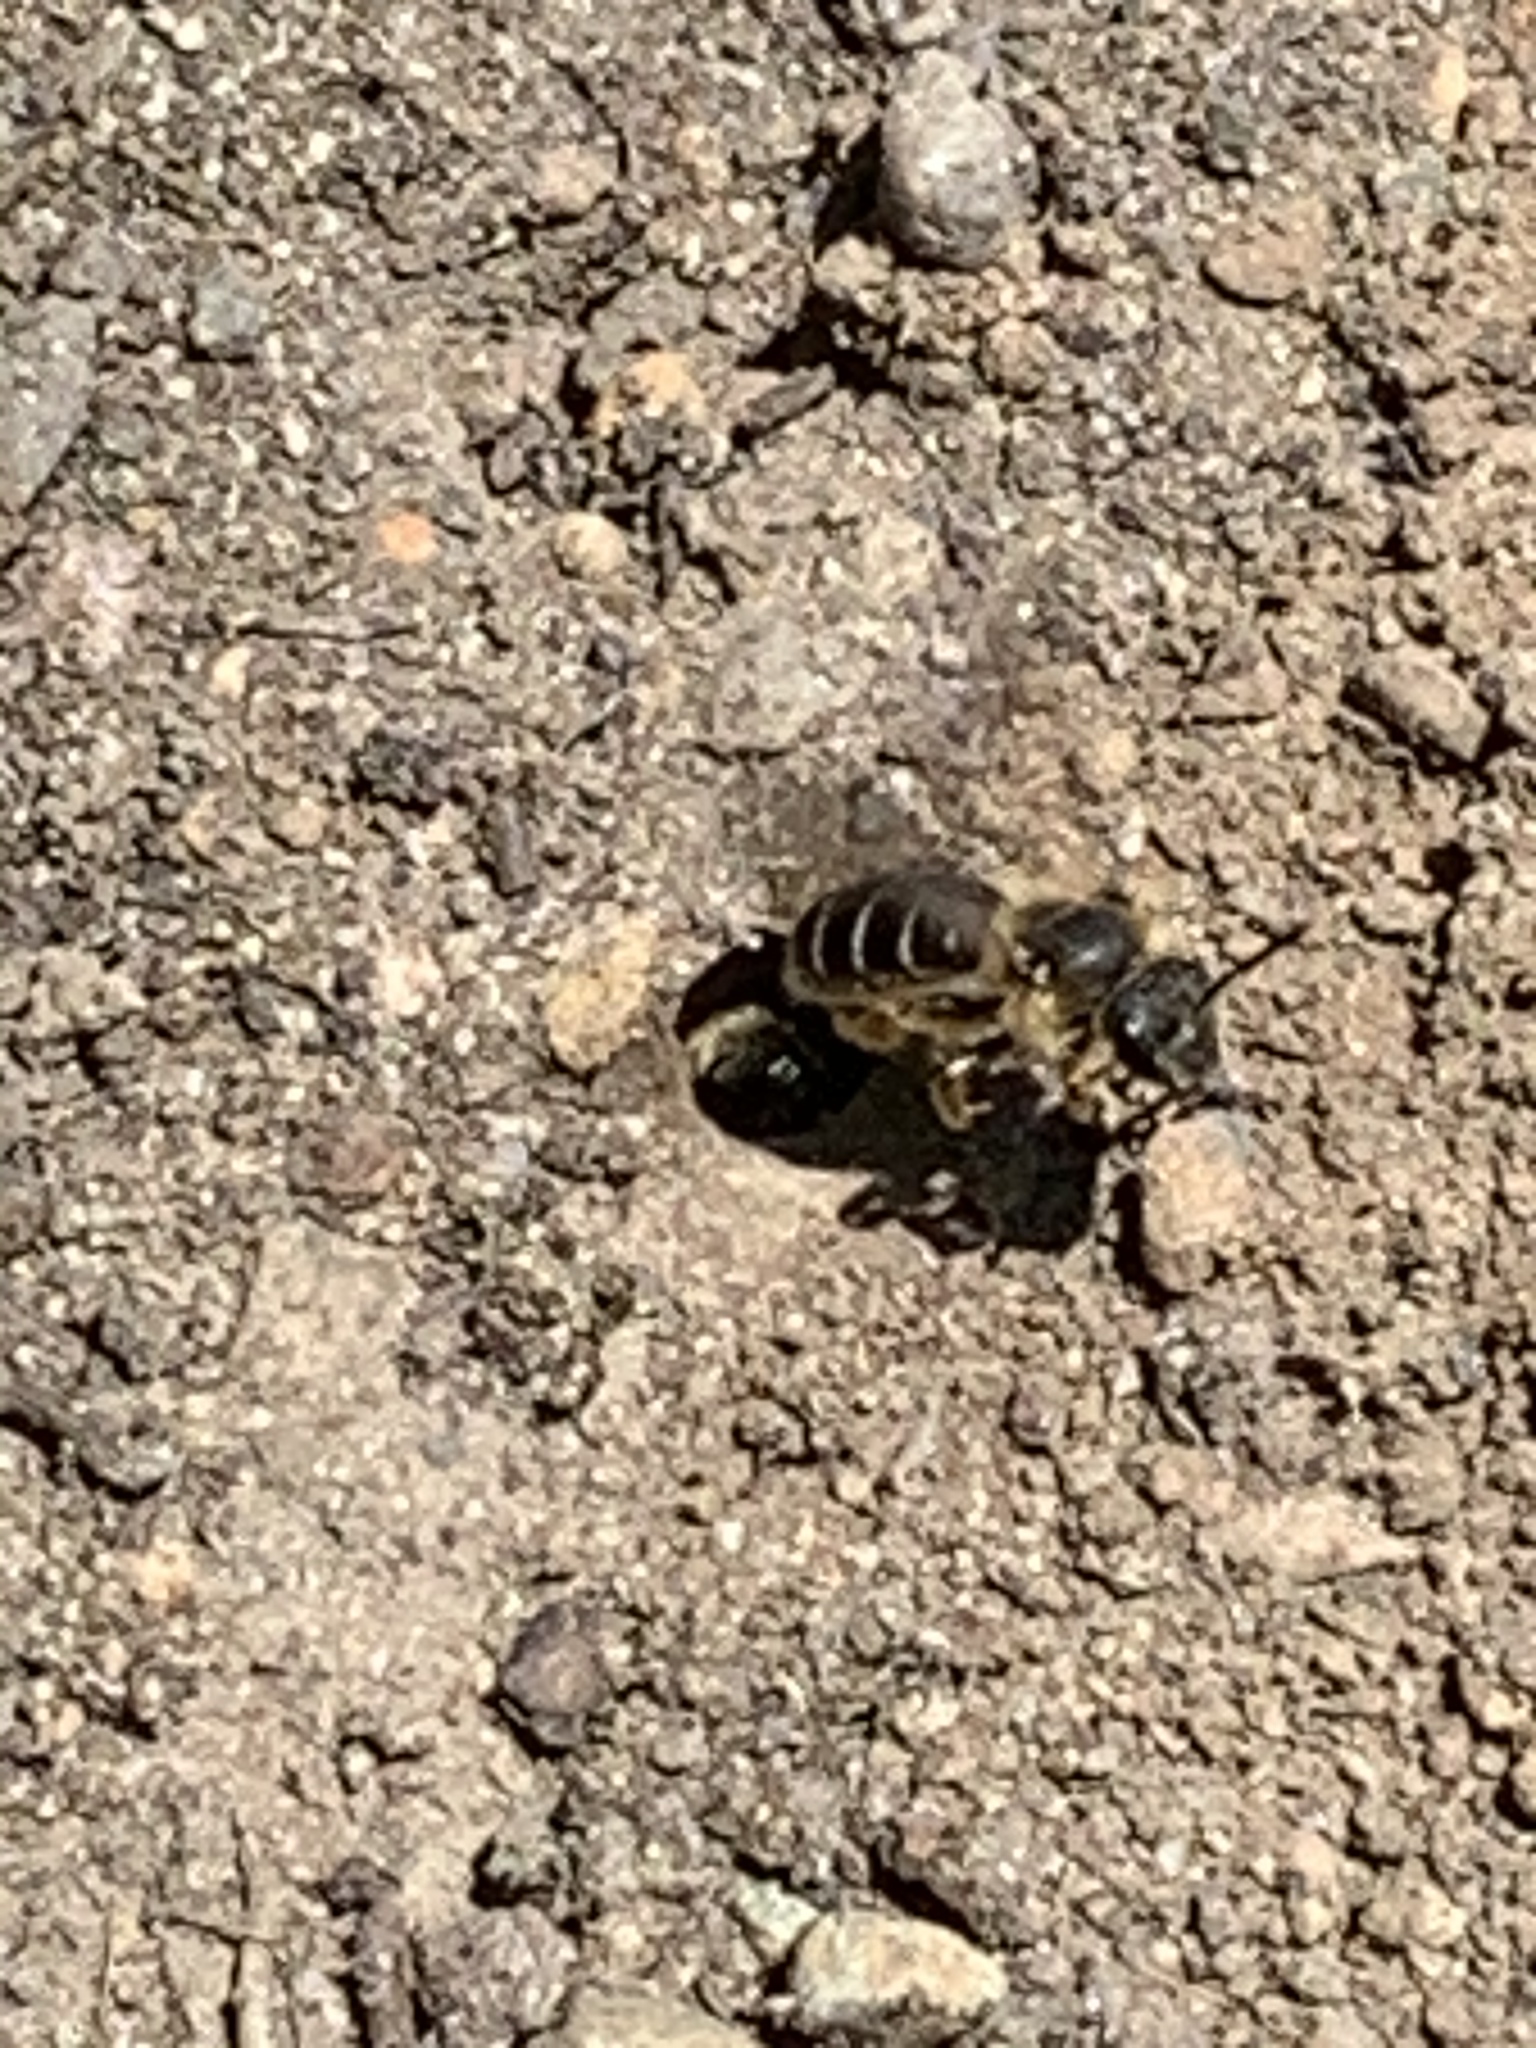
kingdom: Animalia
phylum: Arthropoda
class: Insecta
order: Hymenoptera
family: Halictidae
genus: Halictus
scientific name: Halictus rubicundus
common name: Orange-legged furrow bee
